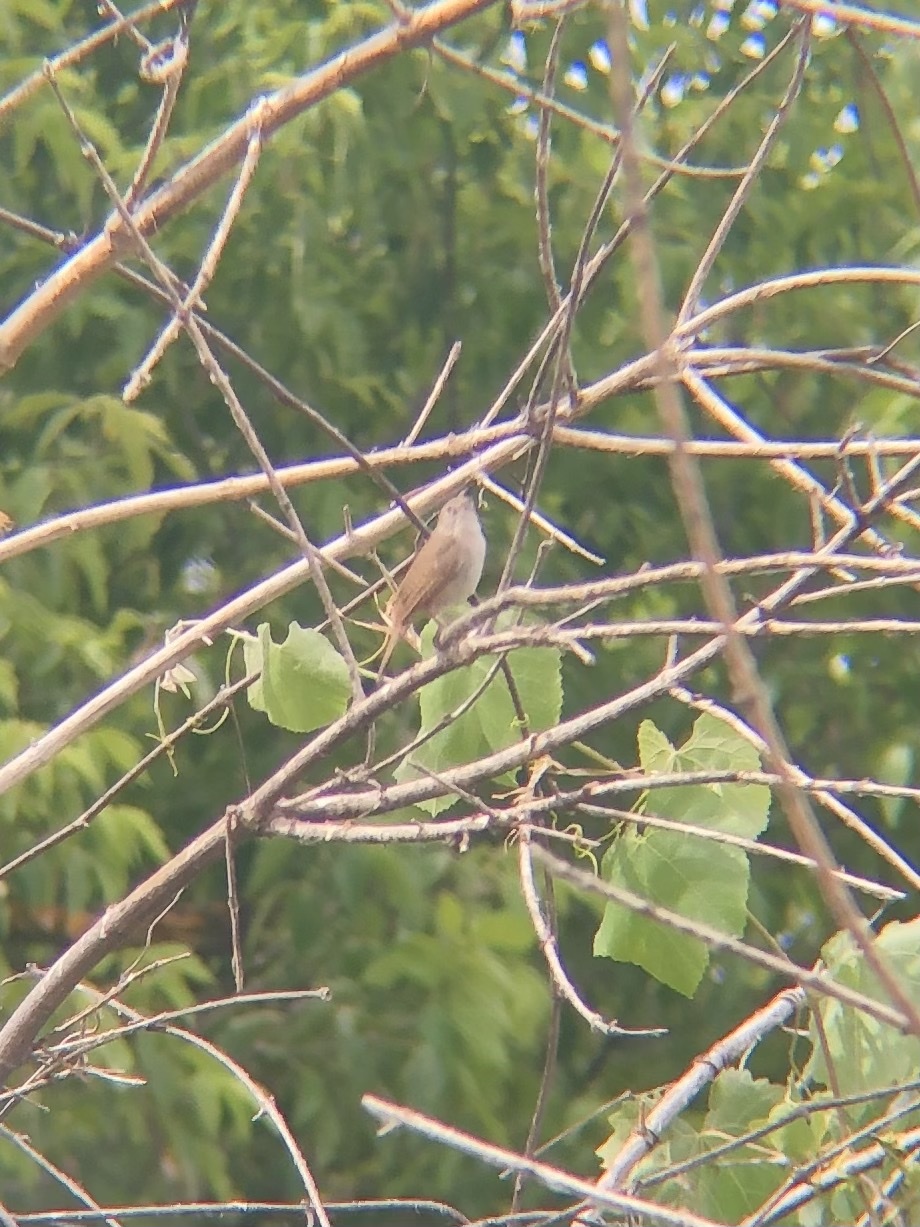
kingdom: Animalia
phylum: Chordata
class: Aves
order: Passeriformes
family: Troglodytidae
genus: Troglodytes
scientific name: Troglodytes aedon
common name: House wren
